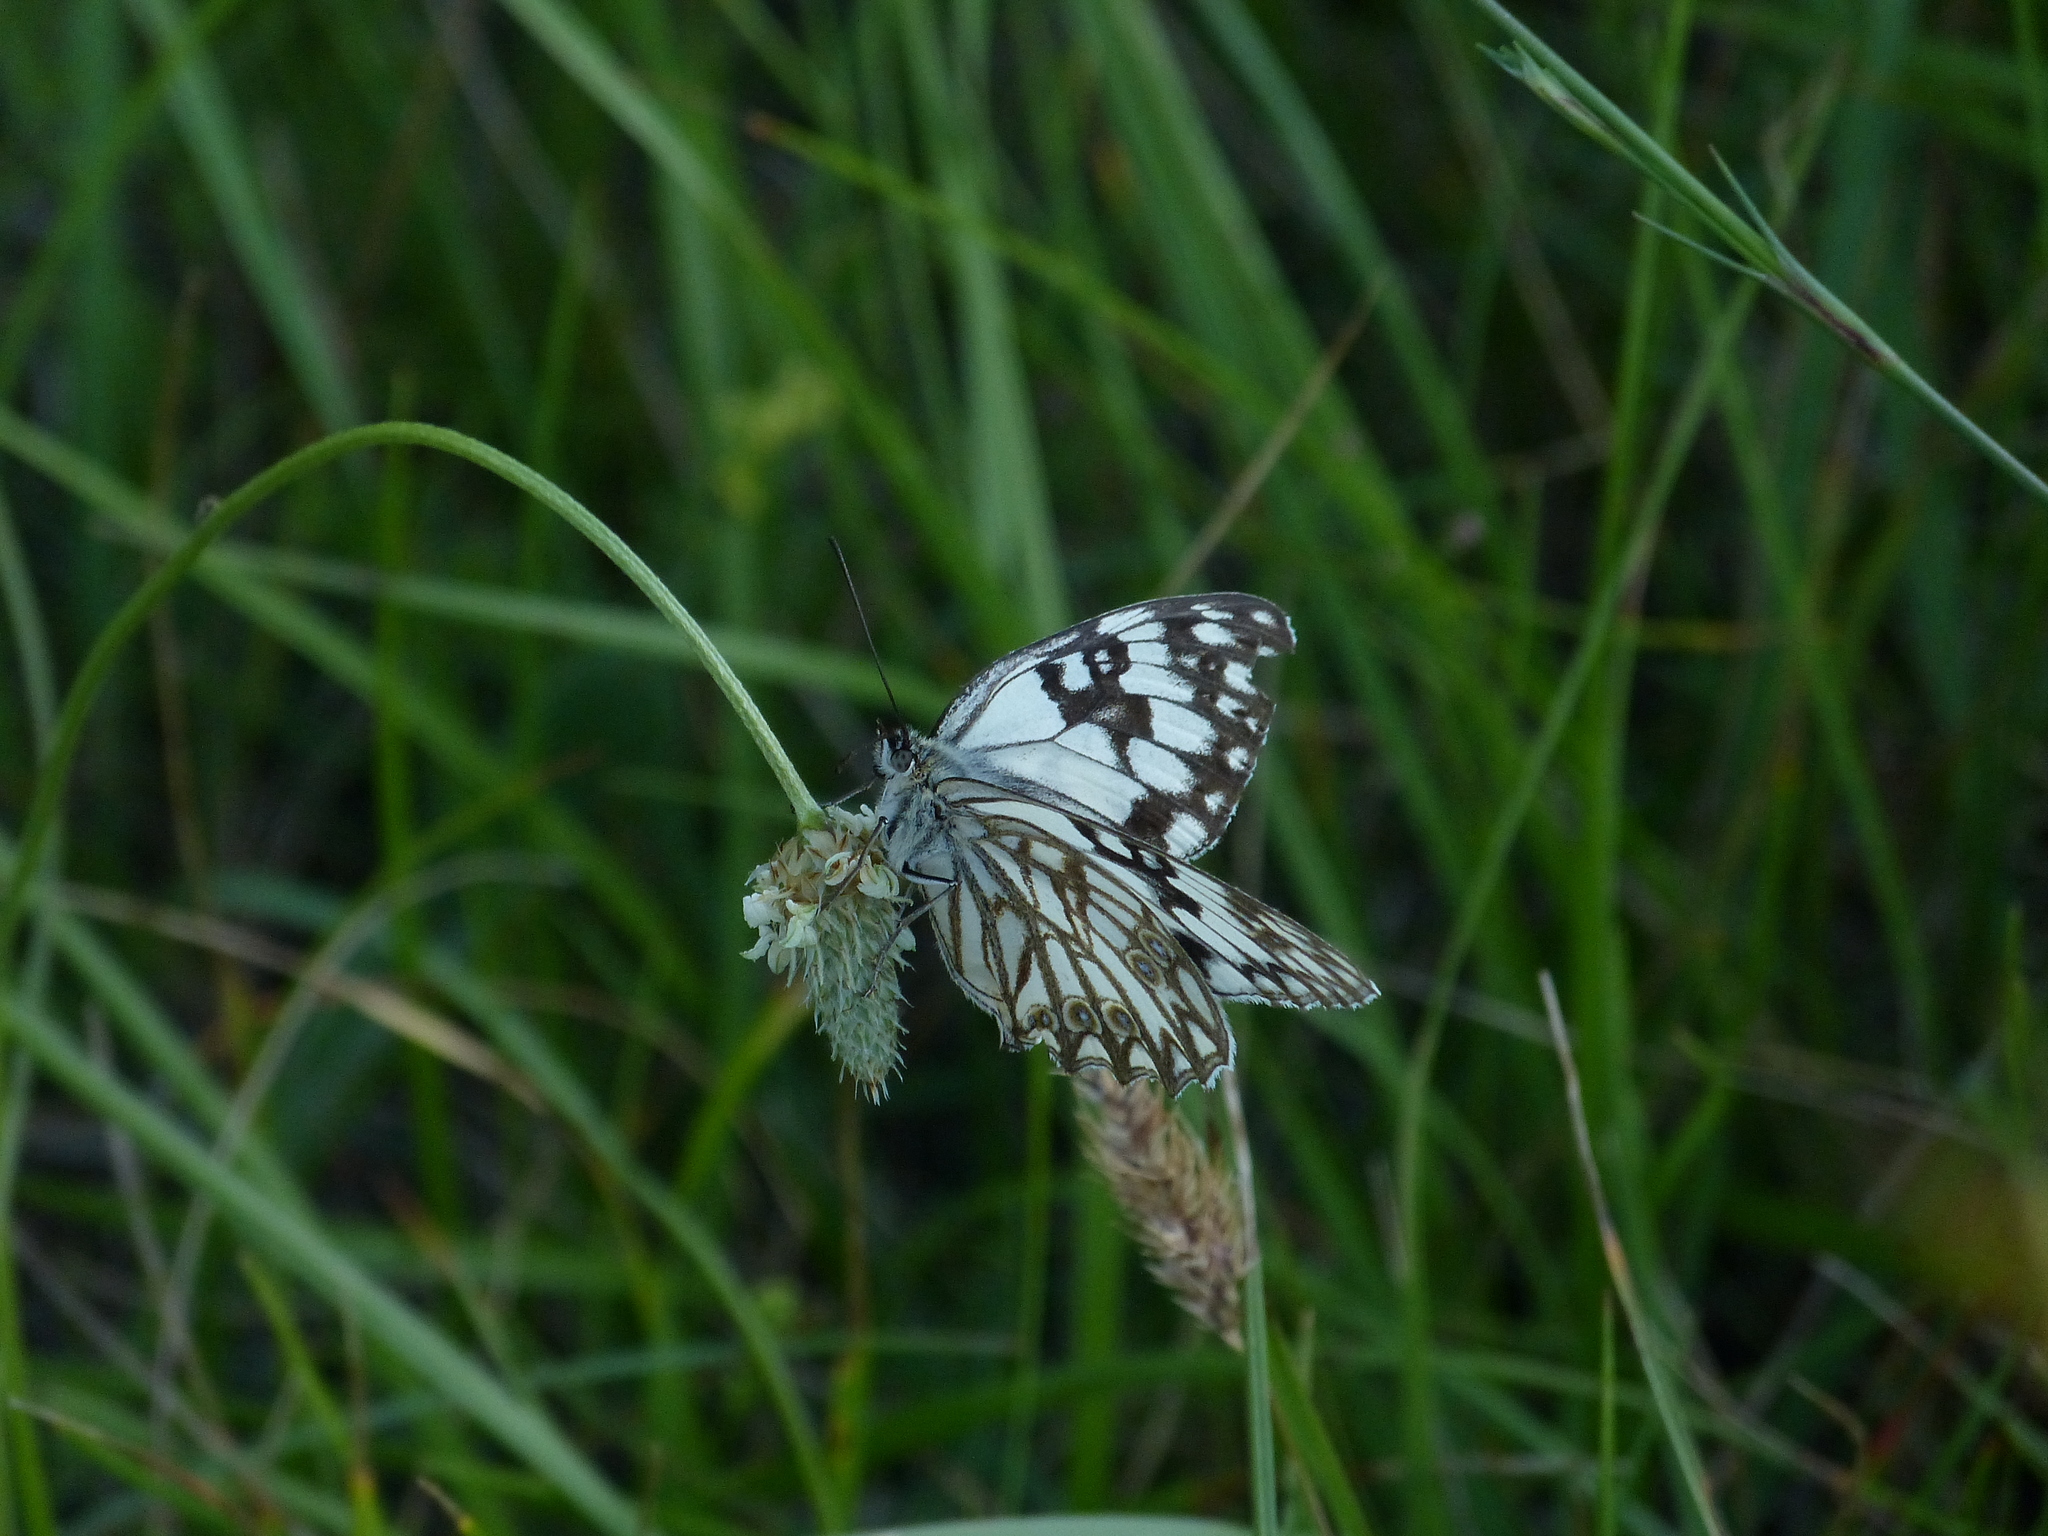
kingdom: Animalia
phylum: Arthropoda
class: Insecta
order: Lepidoptera
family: Nymphalidae
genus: Melanargia
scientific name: Melanargia occitanica
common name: Western marbled white
